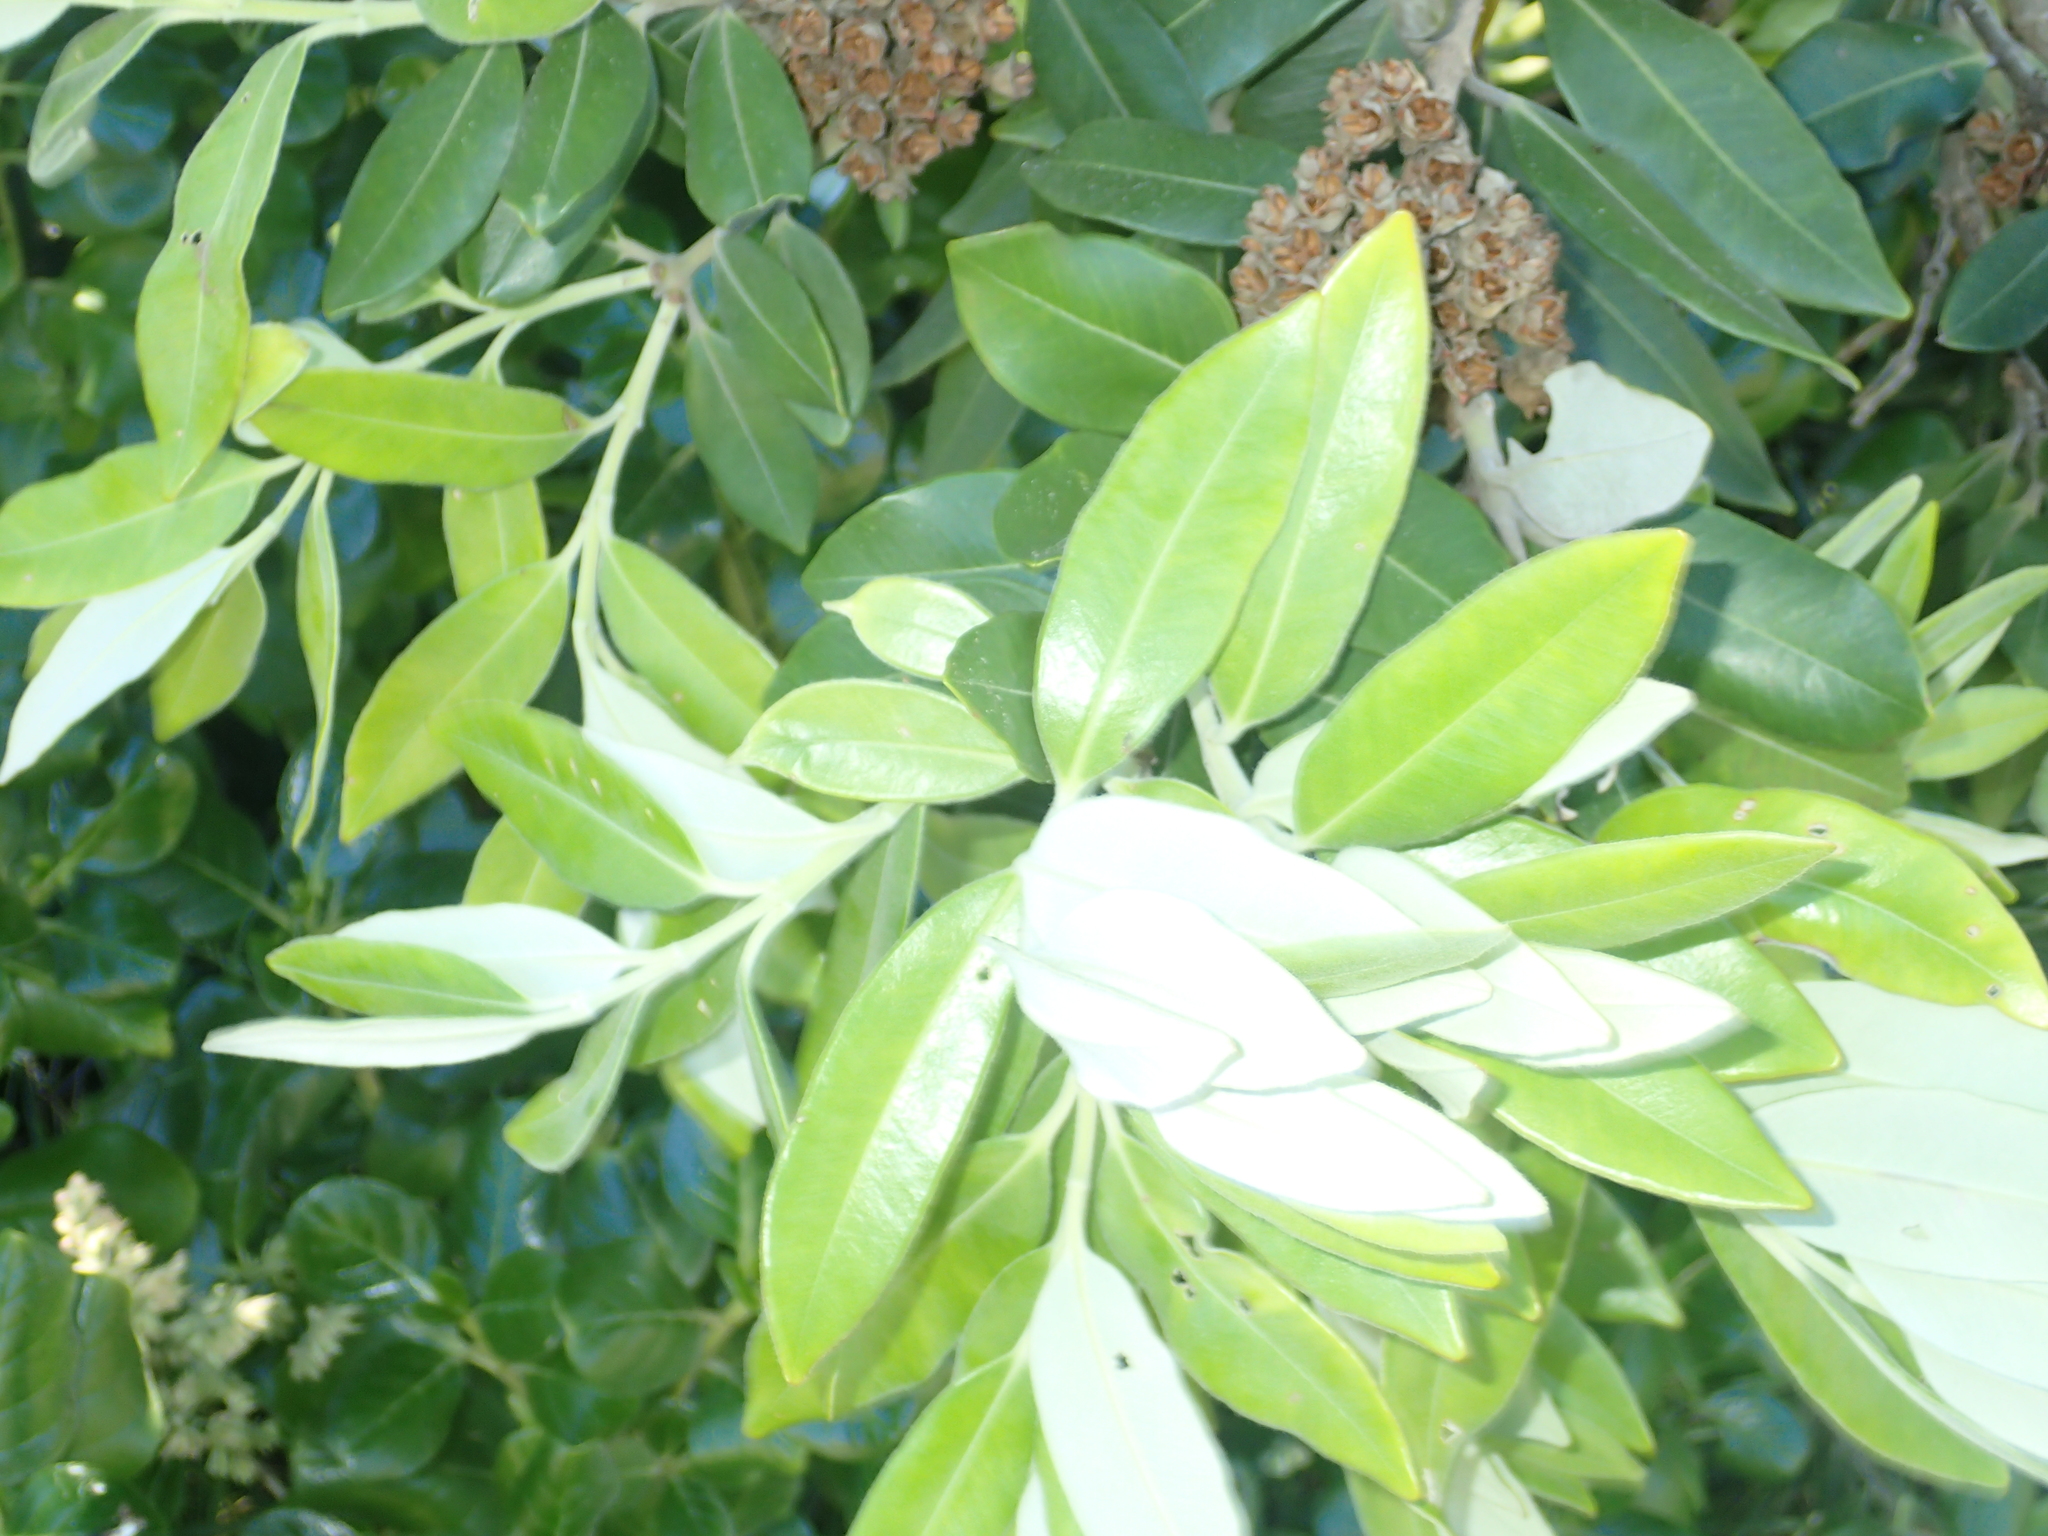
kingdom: Plantae
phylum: Tracheophyta
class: Magnoliopsida
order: Myrtales
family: Myrtaceae
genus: Metrosideros
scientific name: Metrosideros excelsa
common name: New zealand christmastree
